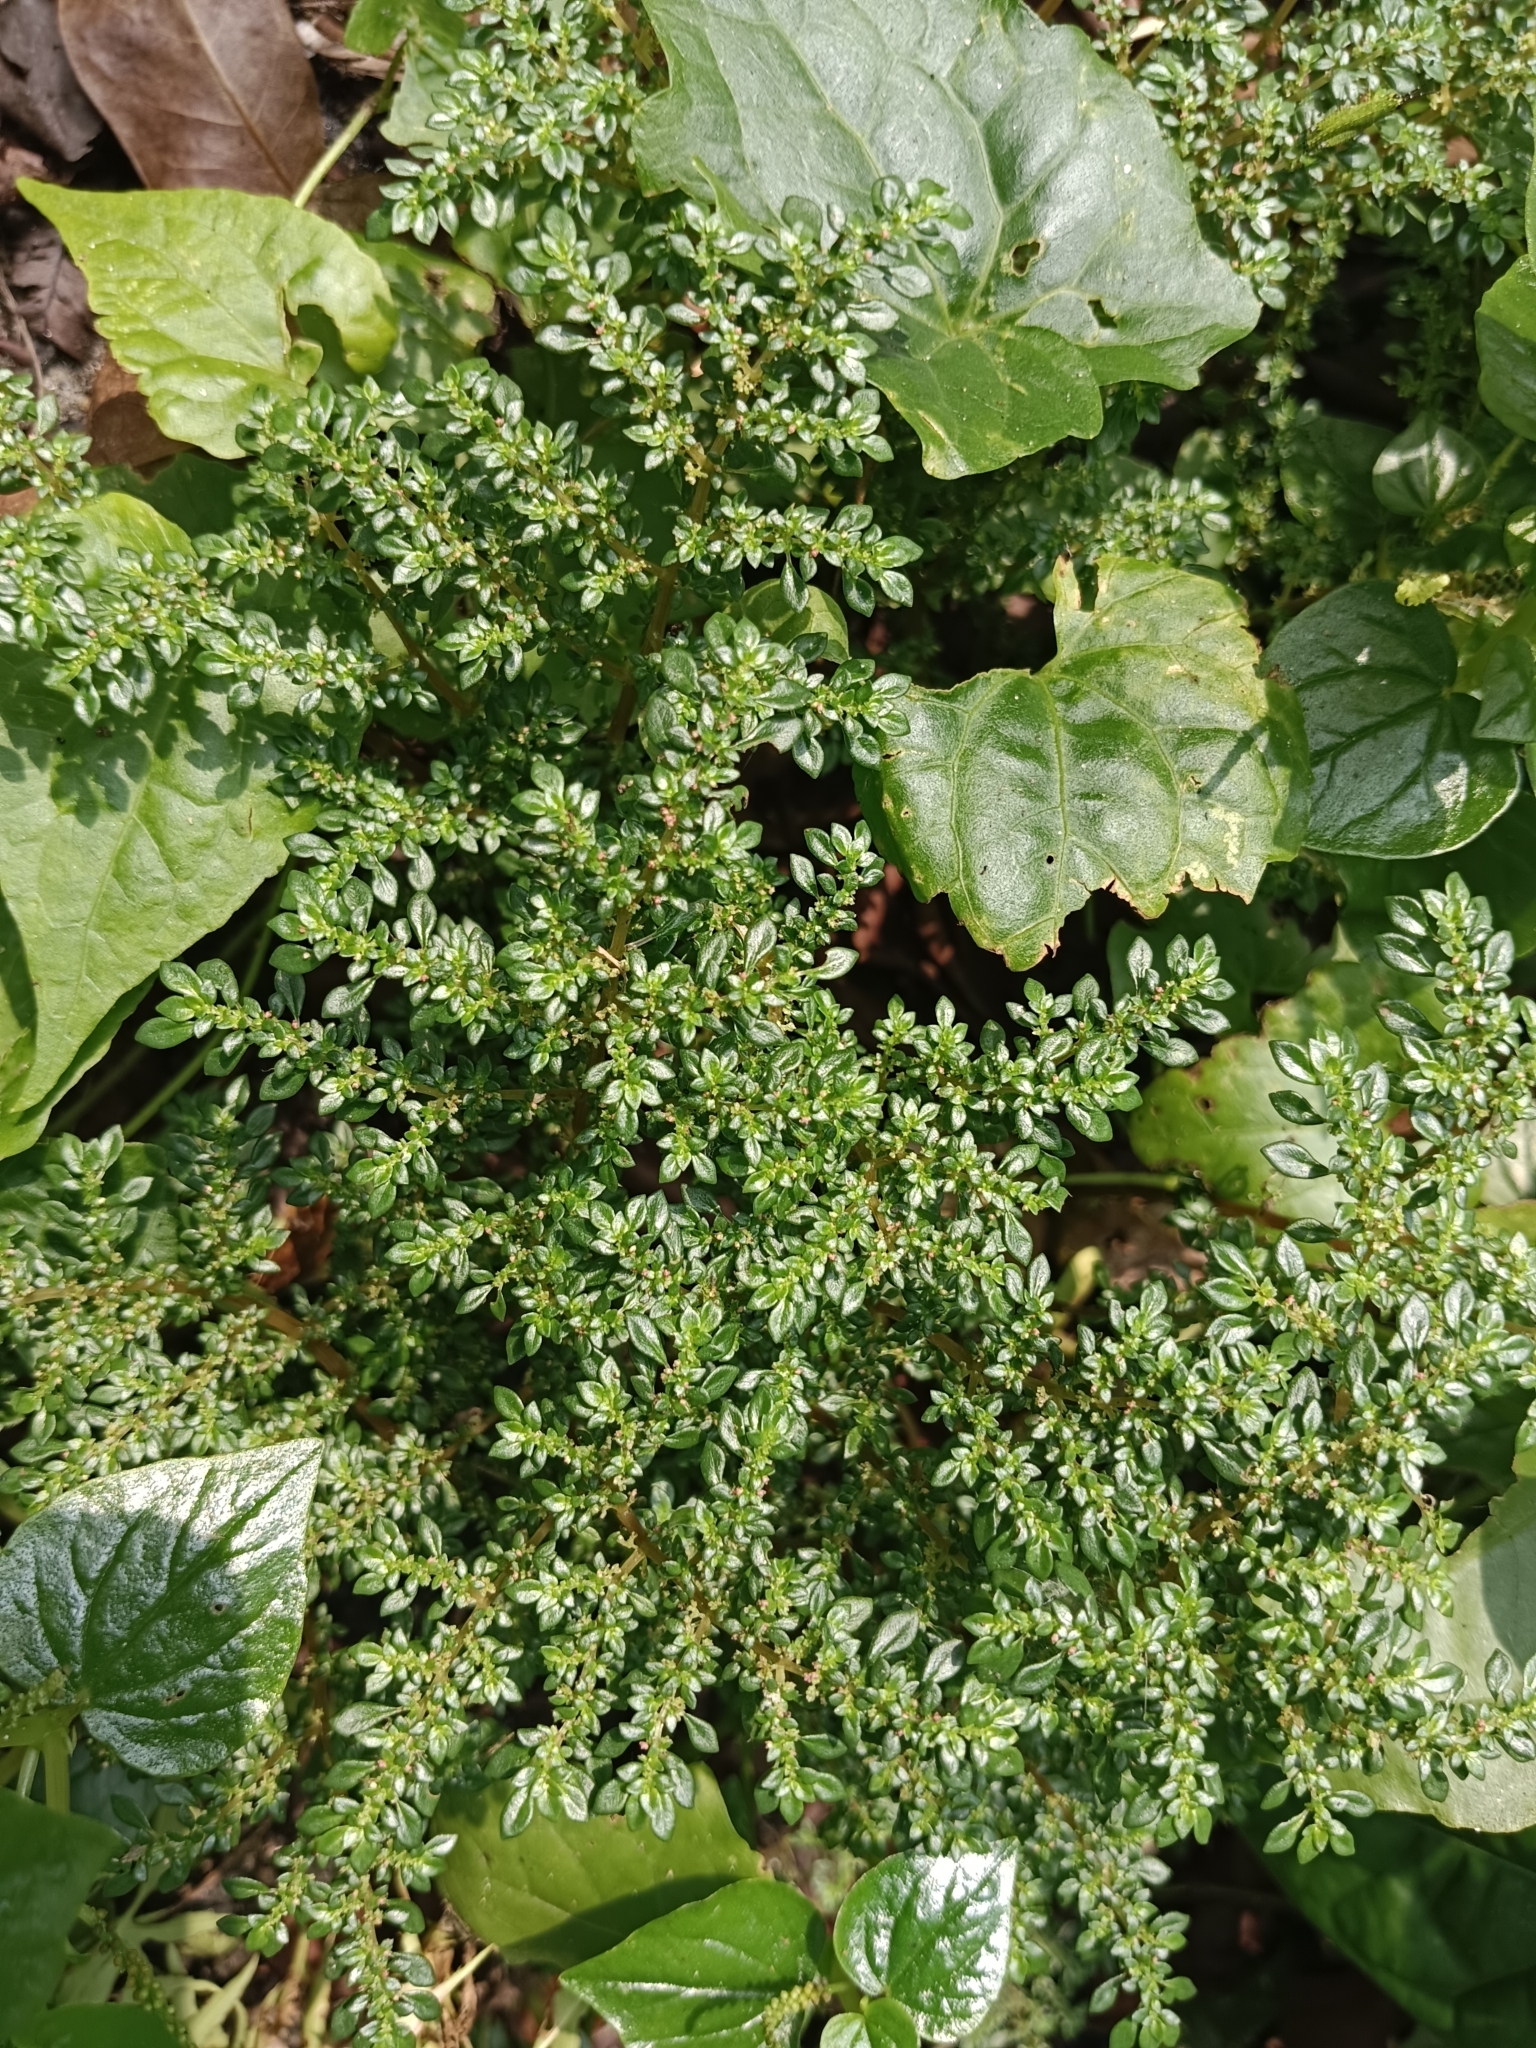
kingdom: Plantae
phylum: Tracheophyta
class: Magnoliopsida
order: Rosales
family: Urticaceae
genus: Pilea
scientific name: Pilea microphylla
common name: Artillery-plant
